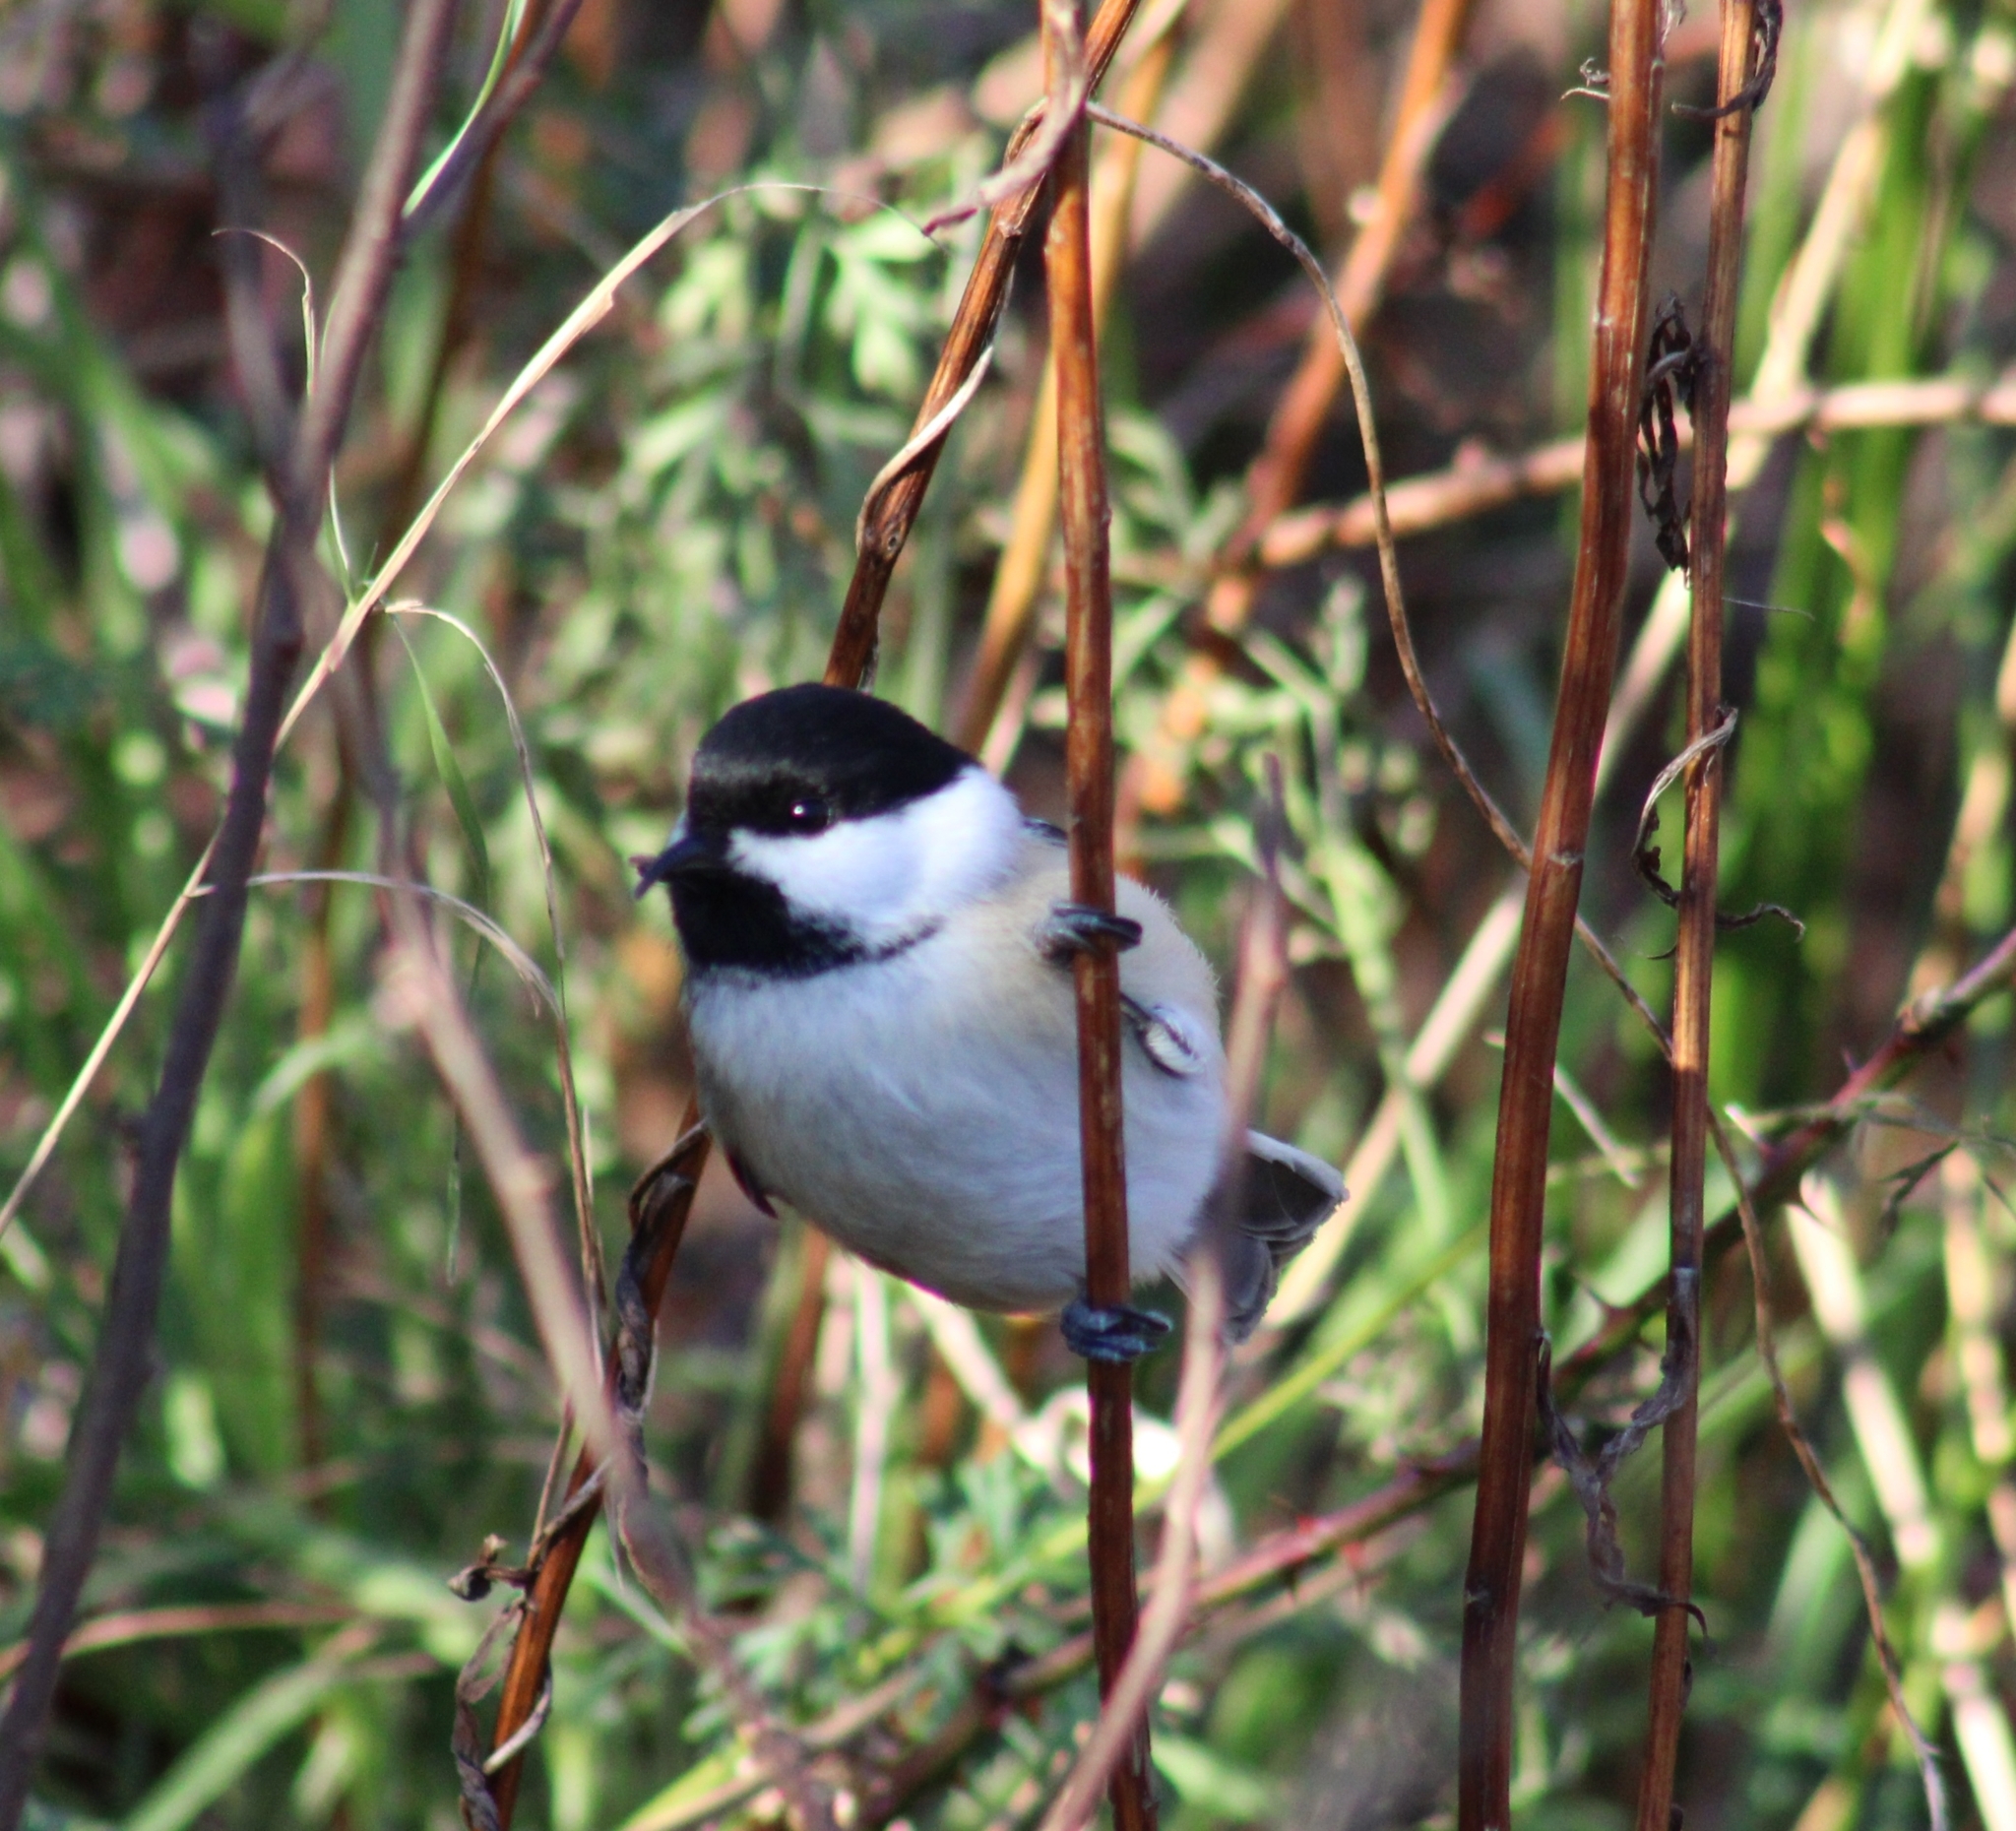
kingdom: Animalia
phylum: Chordata
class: Aves
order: Passeriformes
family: Paridae
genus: Poecile
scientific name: Poecile atricapillus
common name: Black-capped chickadee
